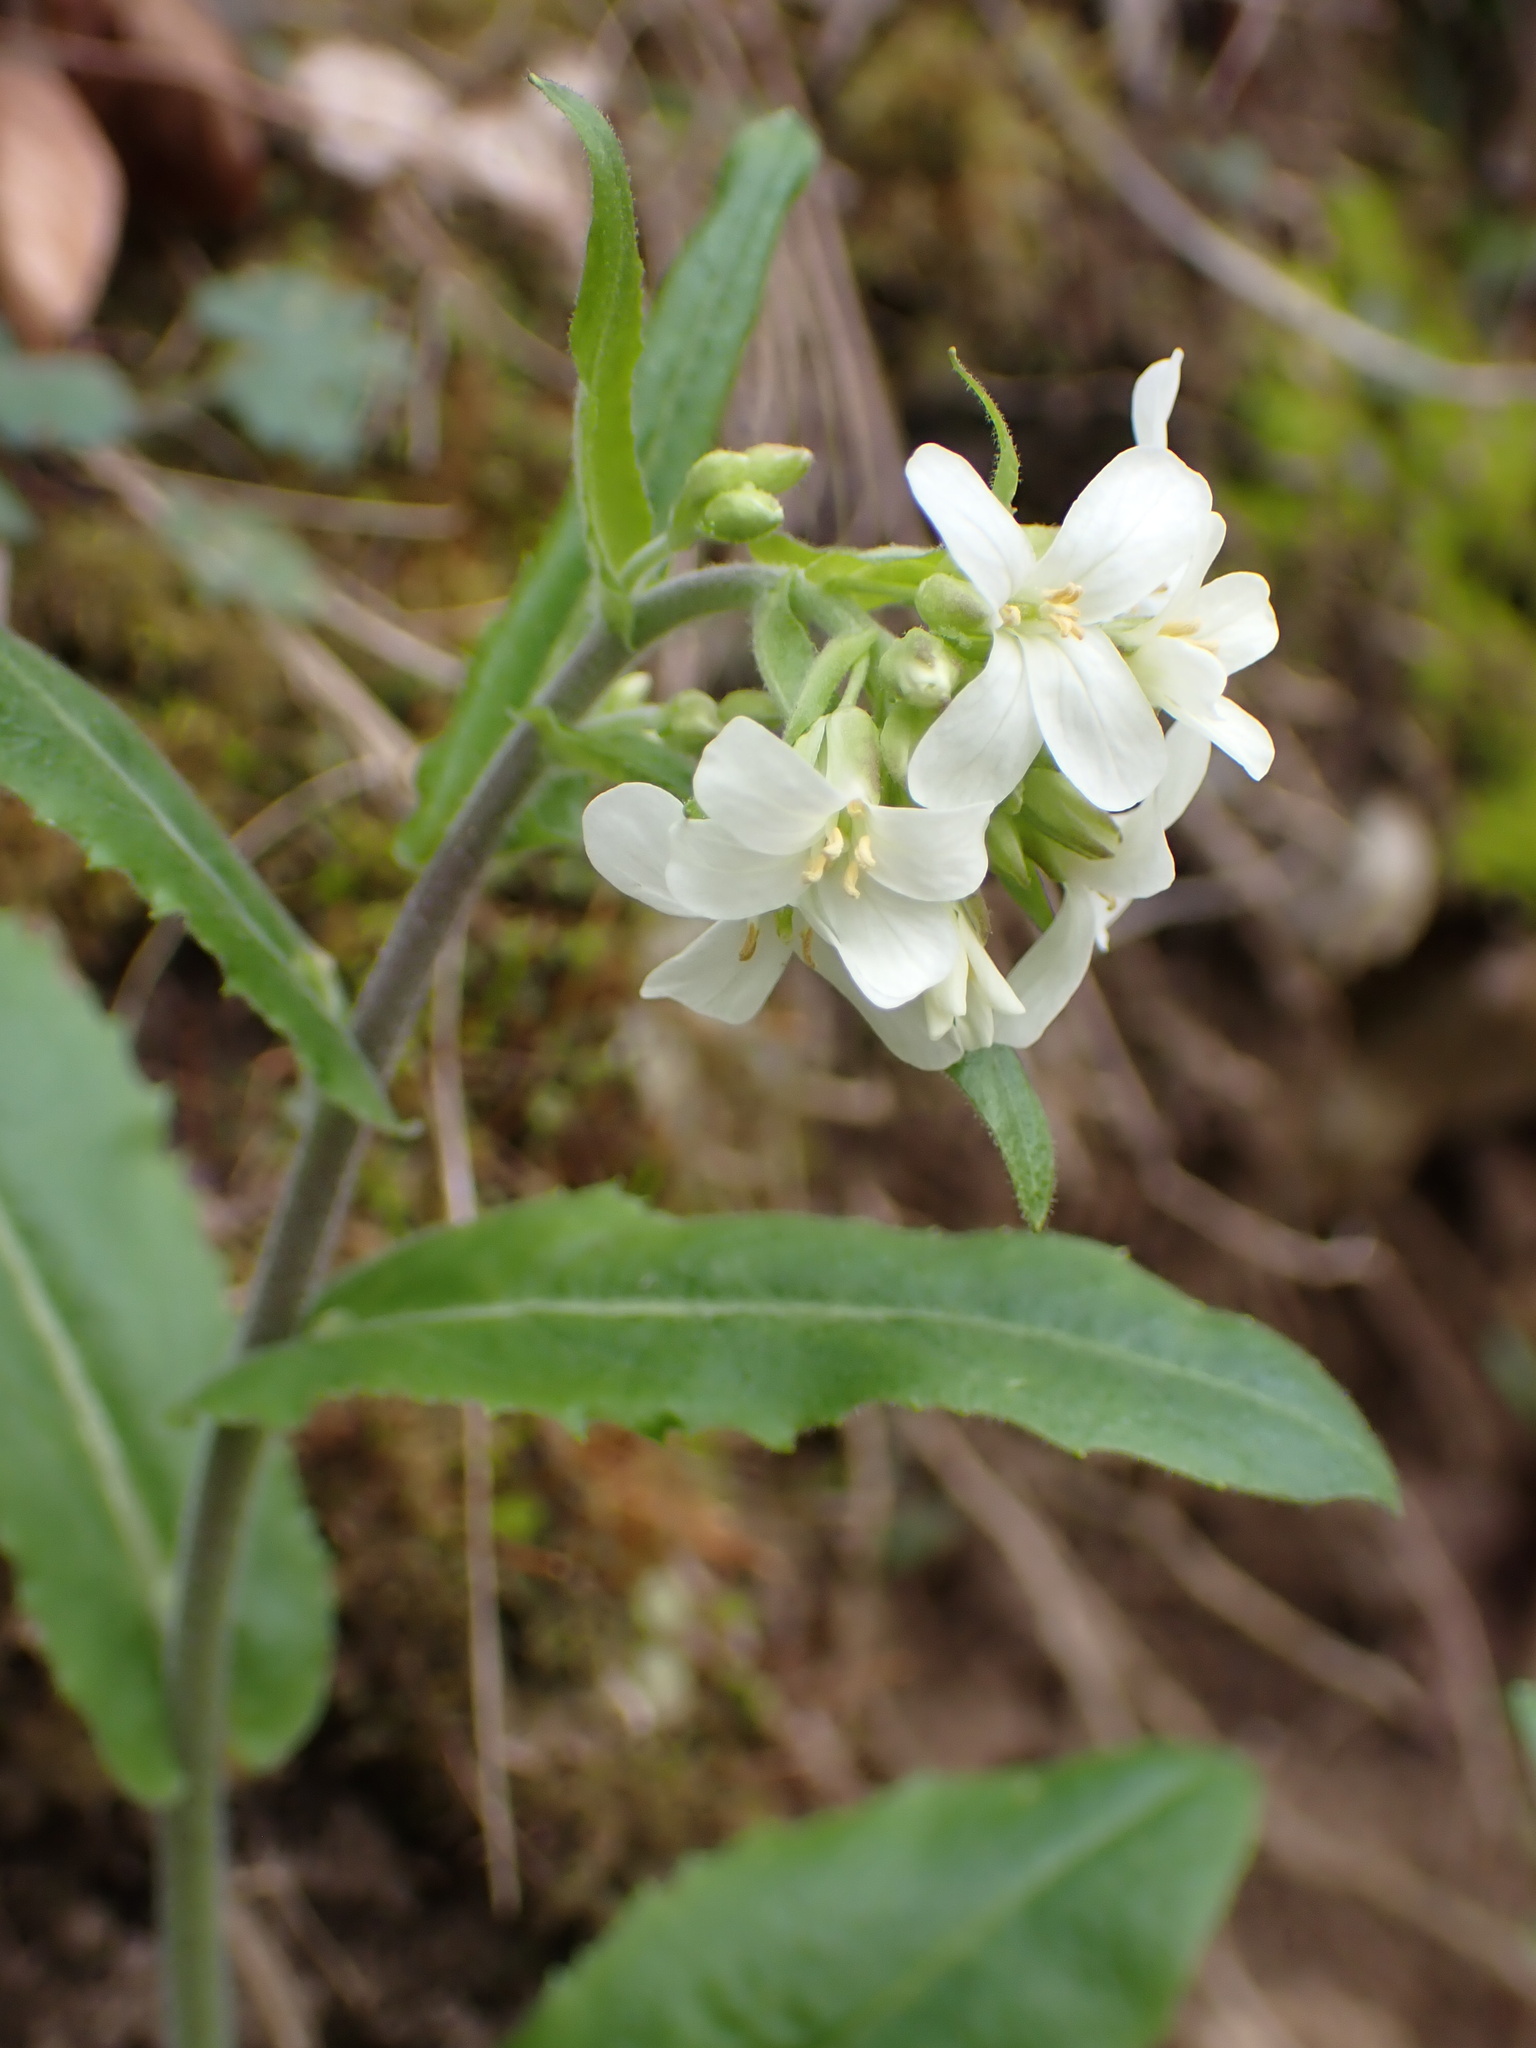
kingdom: Plantae
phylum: Tracheophyta
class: Magnoliopsida
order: Brassicales
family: Brassicaceae
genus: Pseudoturritis
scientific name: Pseudoturritis turrita
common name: Tower cress
